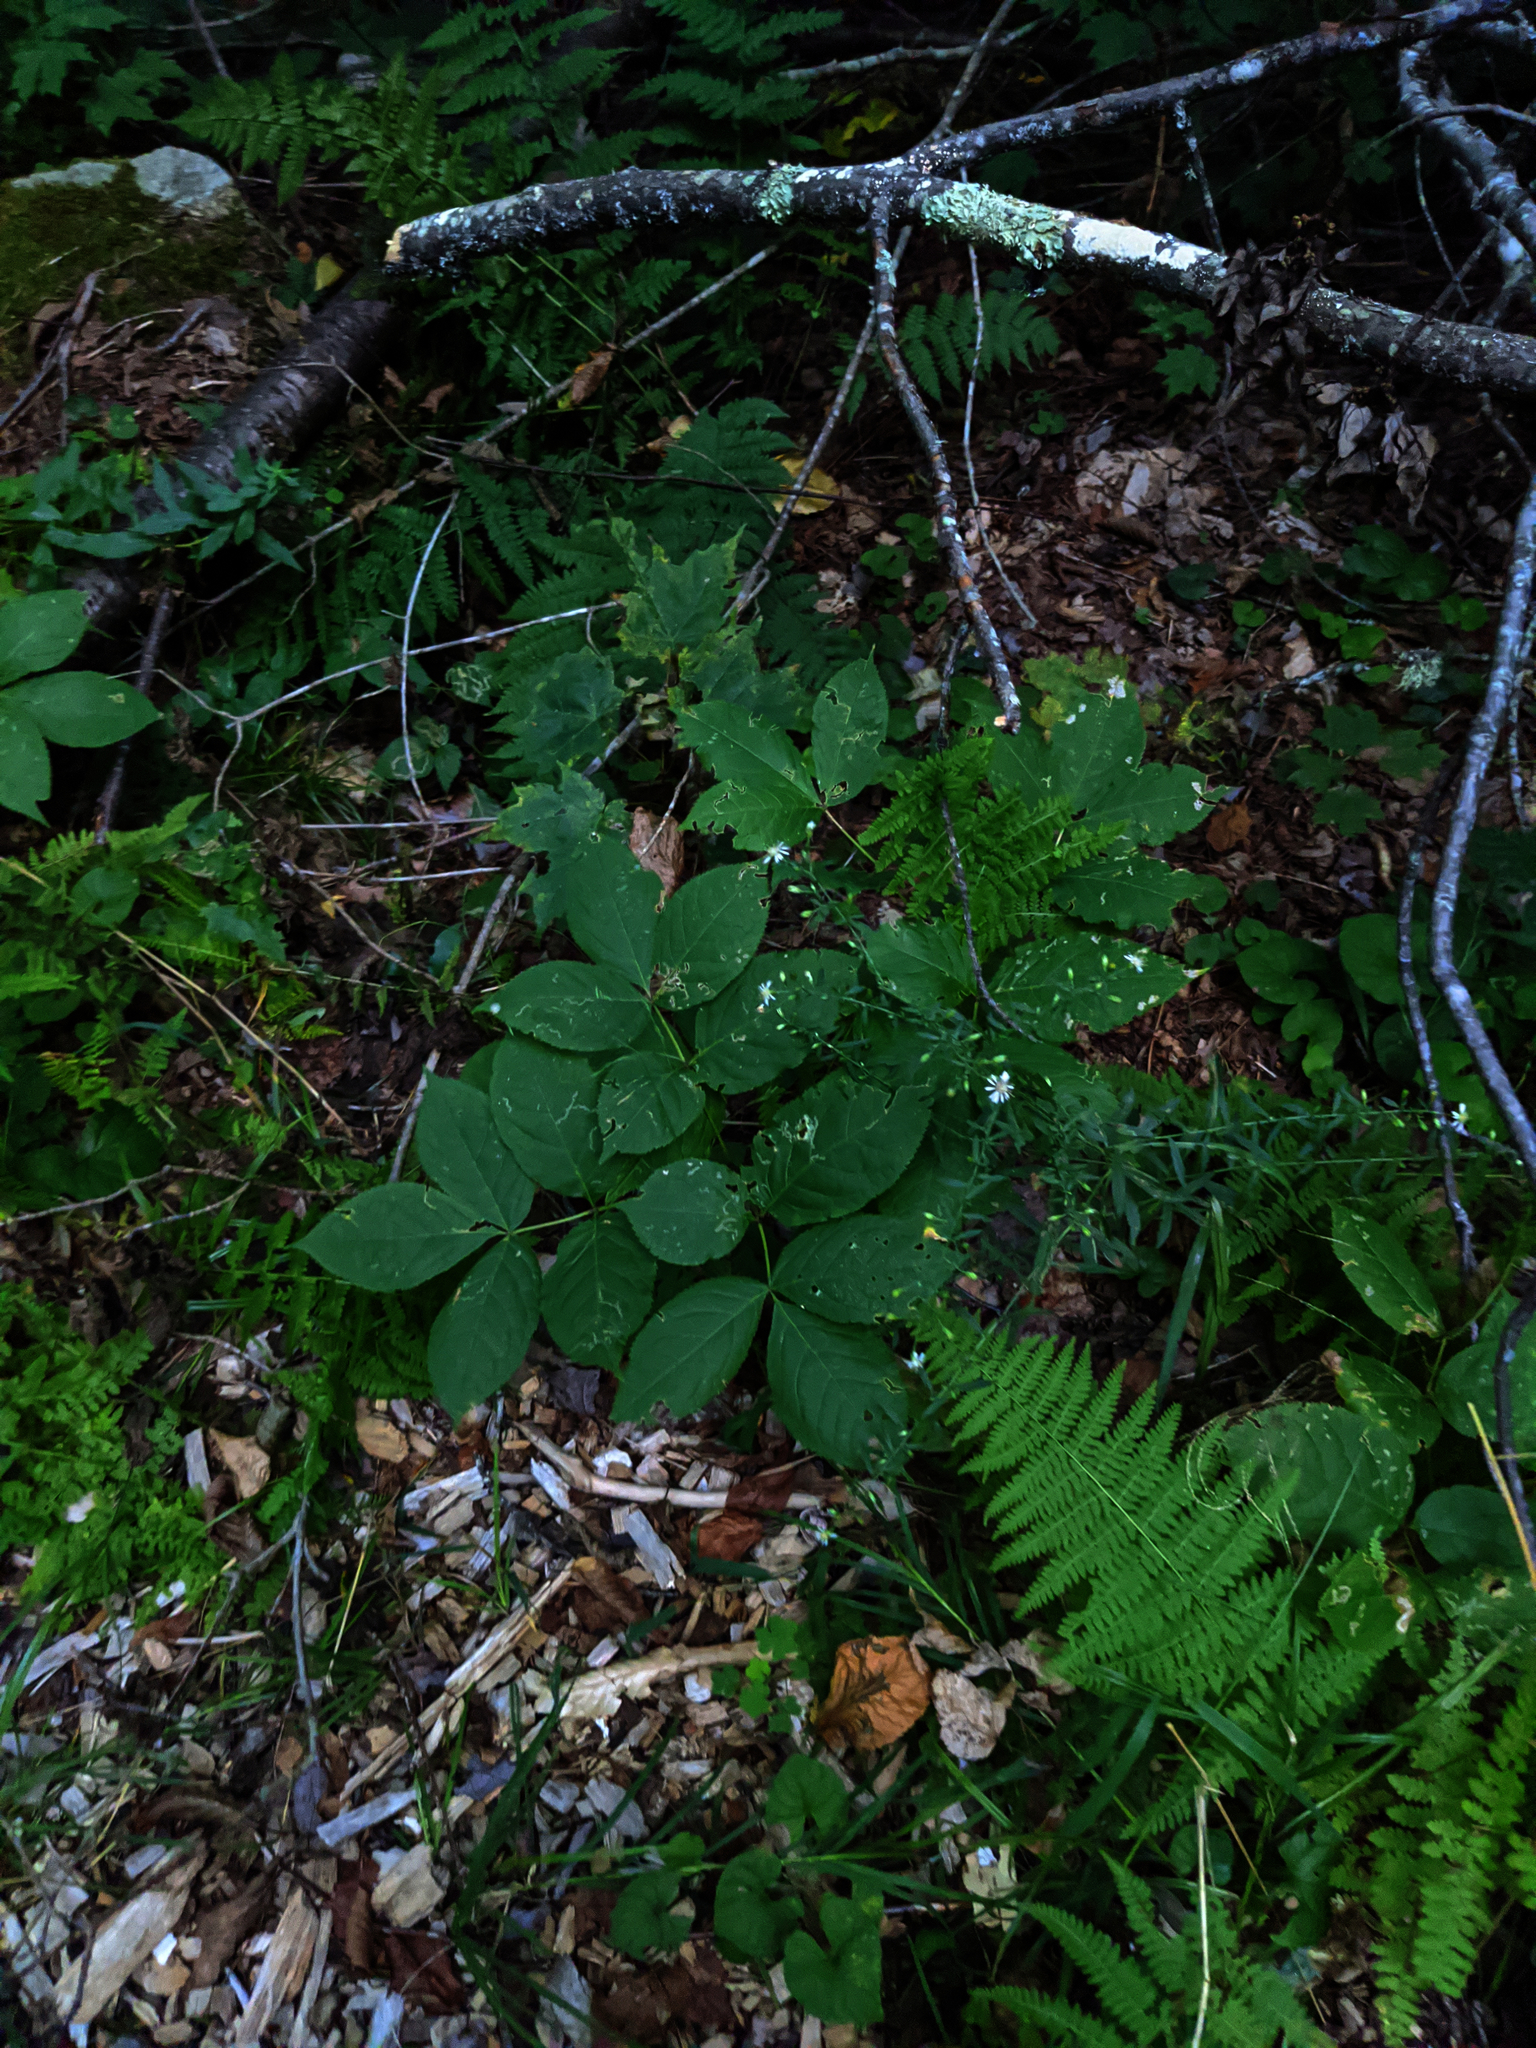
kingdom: Plantae
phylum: Tracheophyta
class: Magnoliopsida
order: Apiales
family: Araliaceae
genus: Aralia
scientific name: Aralia nudicaulis
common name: Wild sarsaparilla
